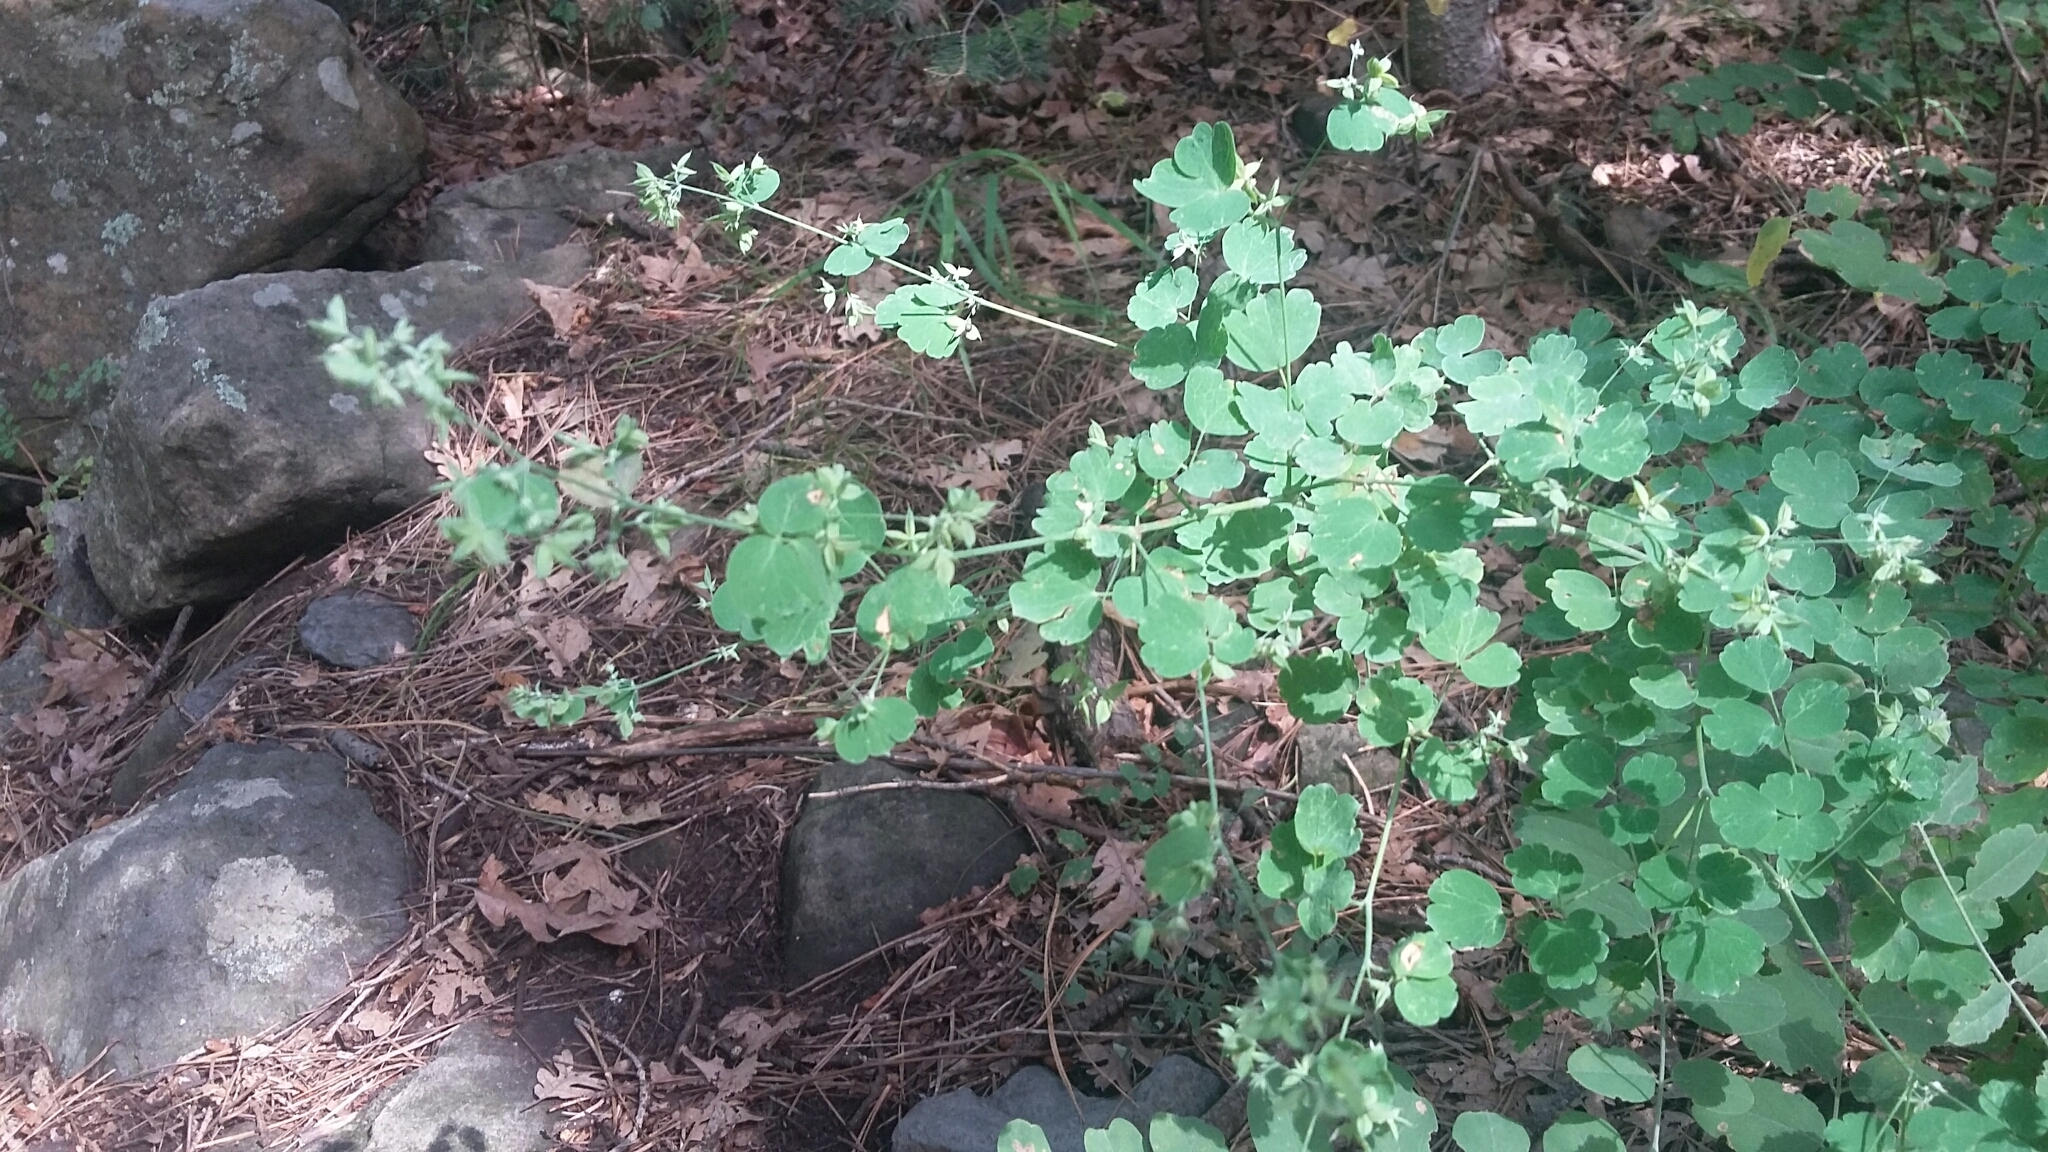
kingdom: Plantae
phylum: Tracheophyta
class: Magnoliopsida
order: Ranunculales
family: Ranunculaceae
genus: Thalictrum
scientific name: Thalictrum fendleri
